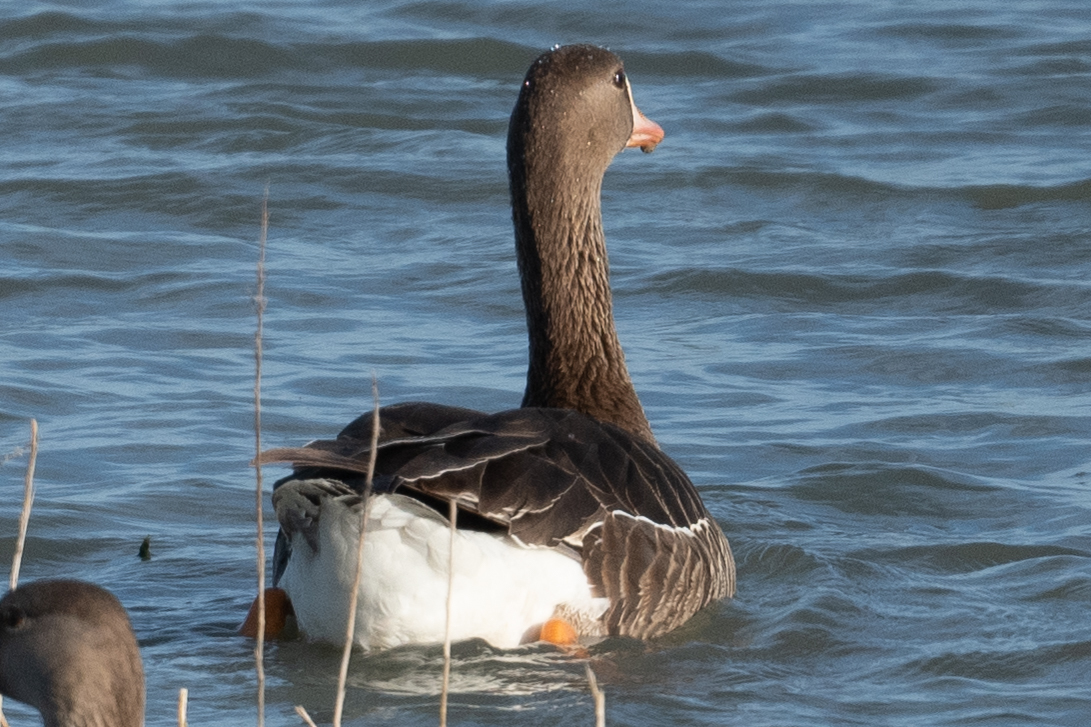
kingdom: Animalia
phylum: Chordata
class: Aves
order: Anseriformes
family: Anatidae
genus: Anser
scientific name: Anser albifrons
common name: Greater white-fronted goose
